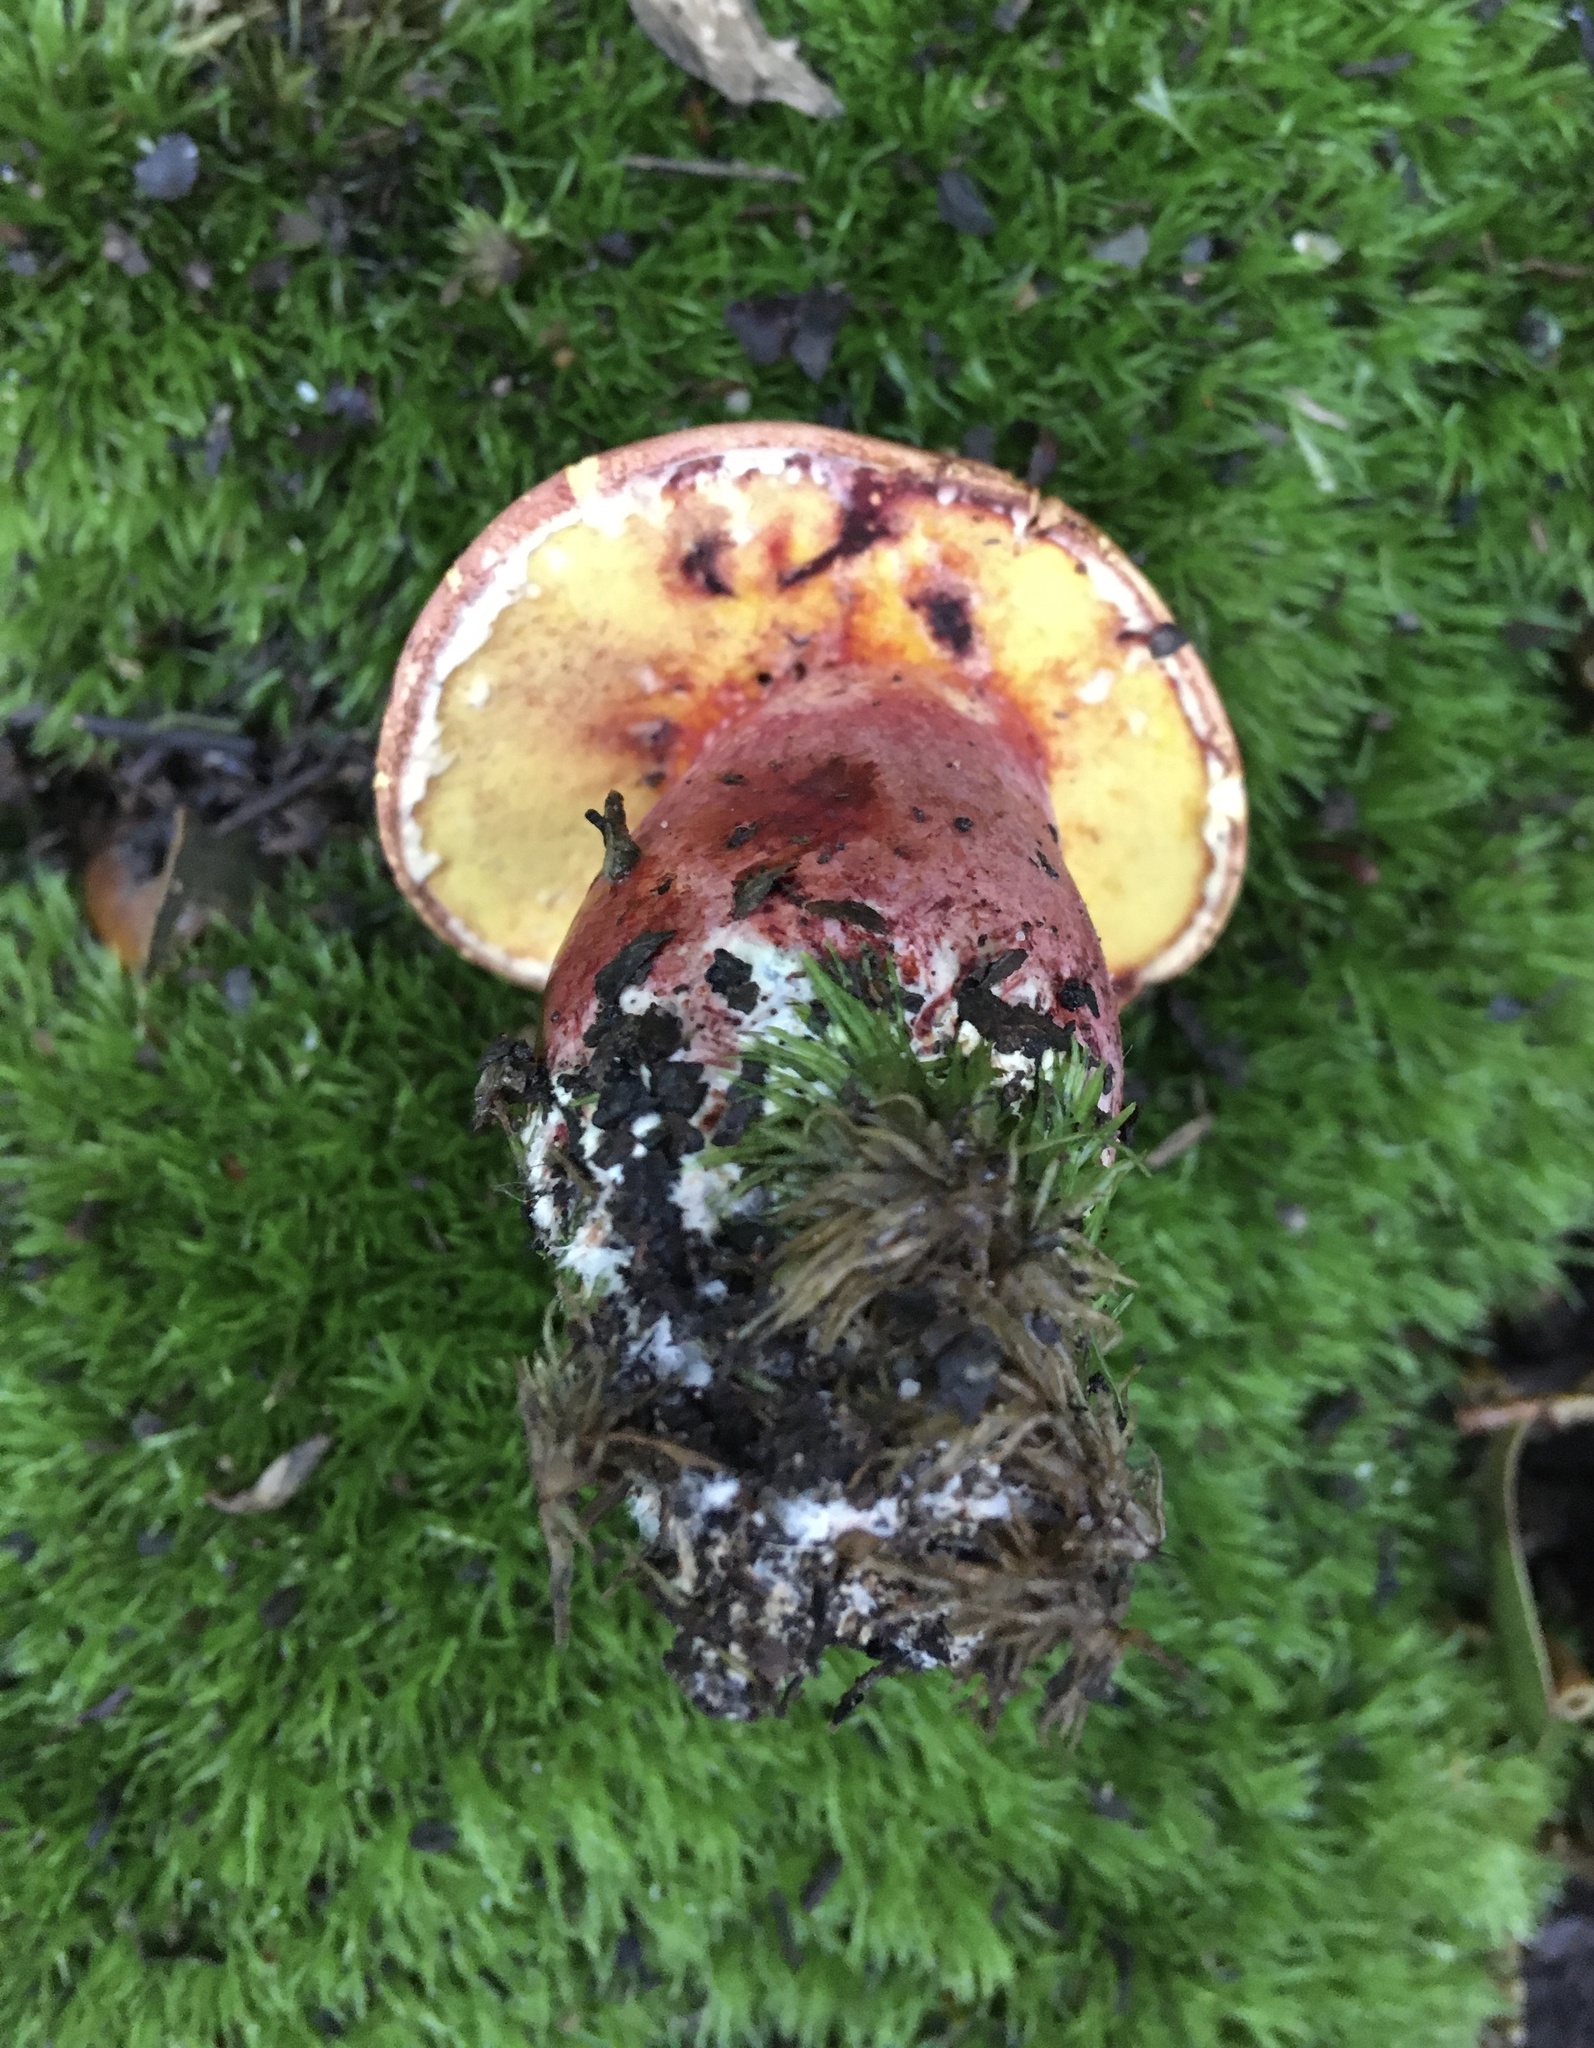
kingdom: Fungi
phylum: Basidiomycota
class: Agaricomycetes
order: Boletales
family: Boletaceae
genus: Baorangia
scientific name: Baorangia bicolor
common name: Two-colored bolete
